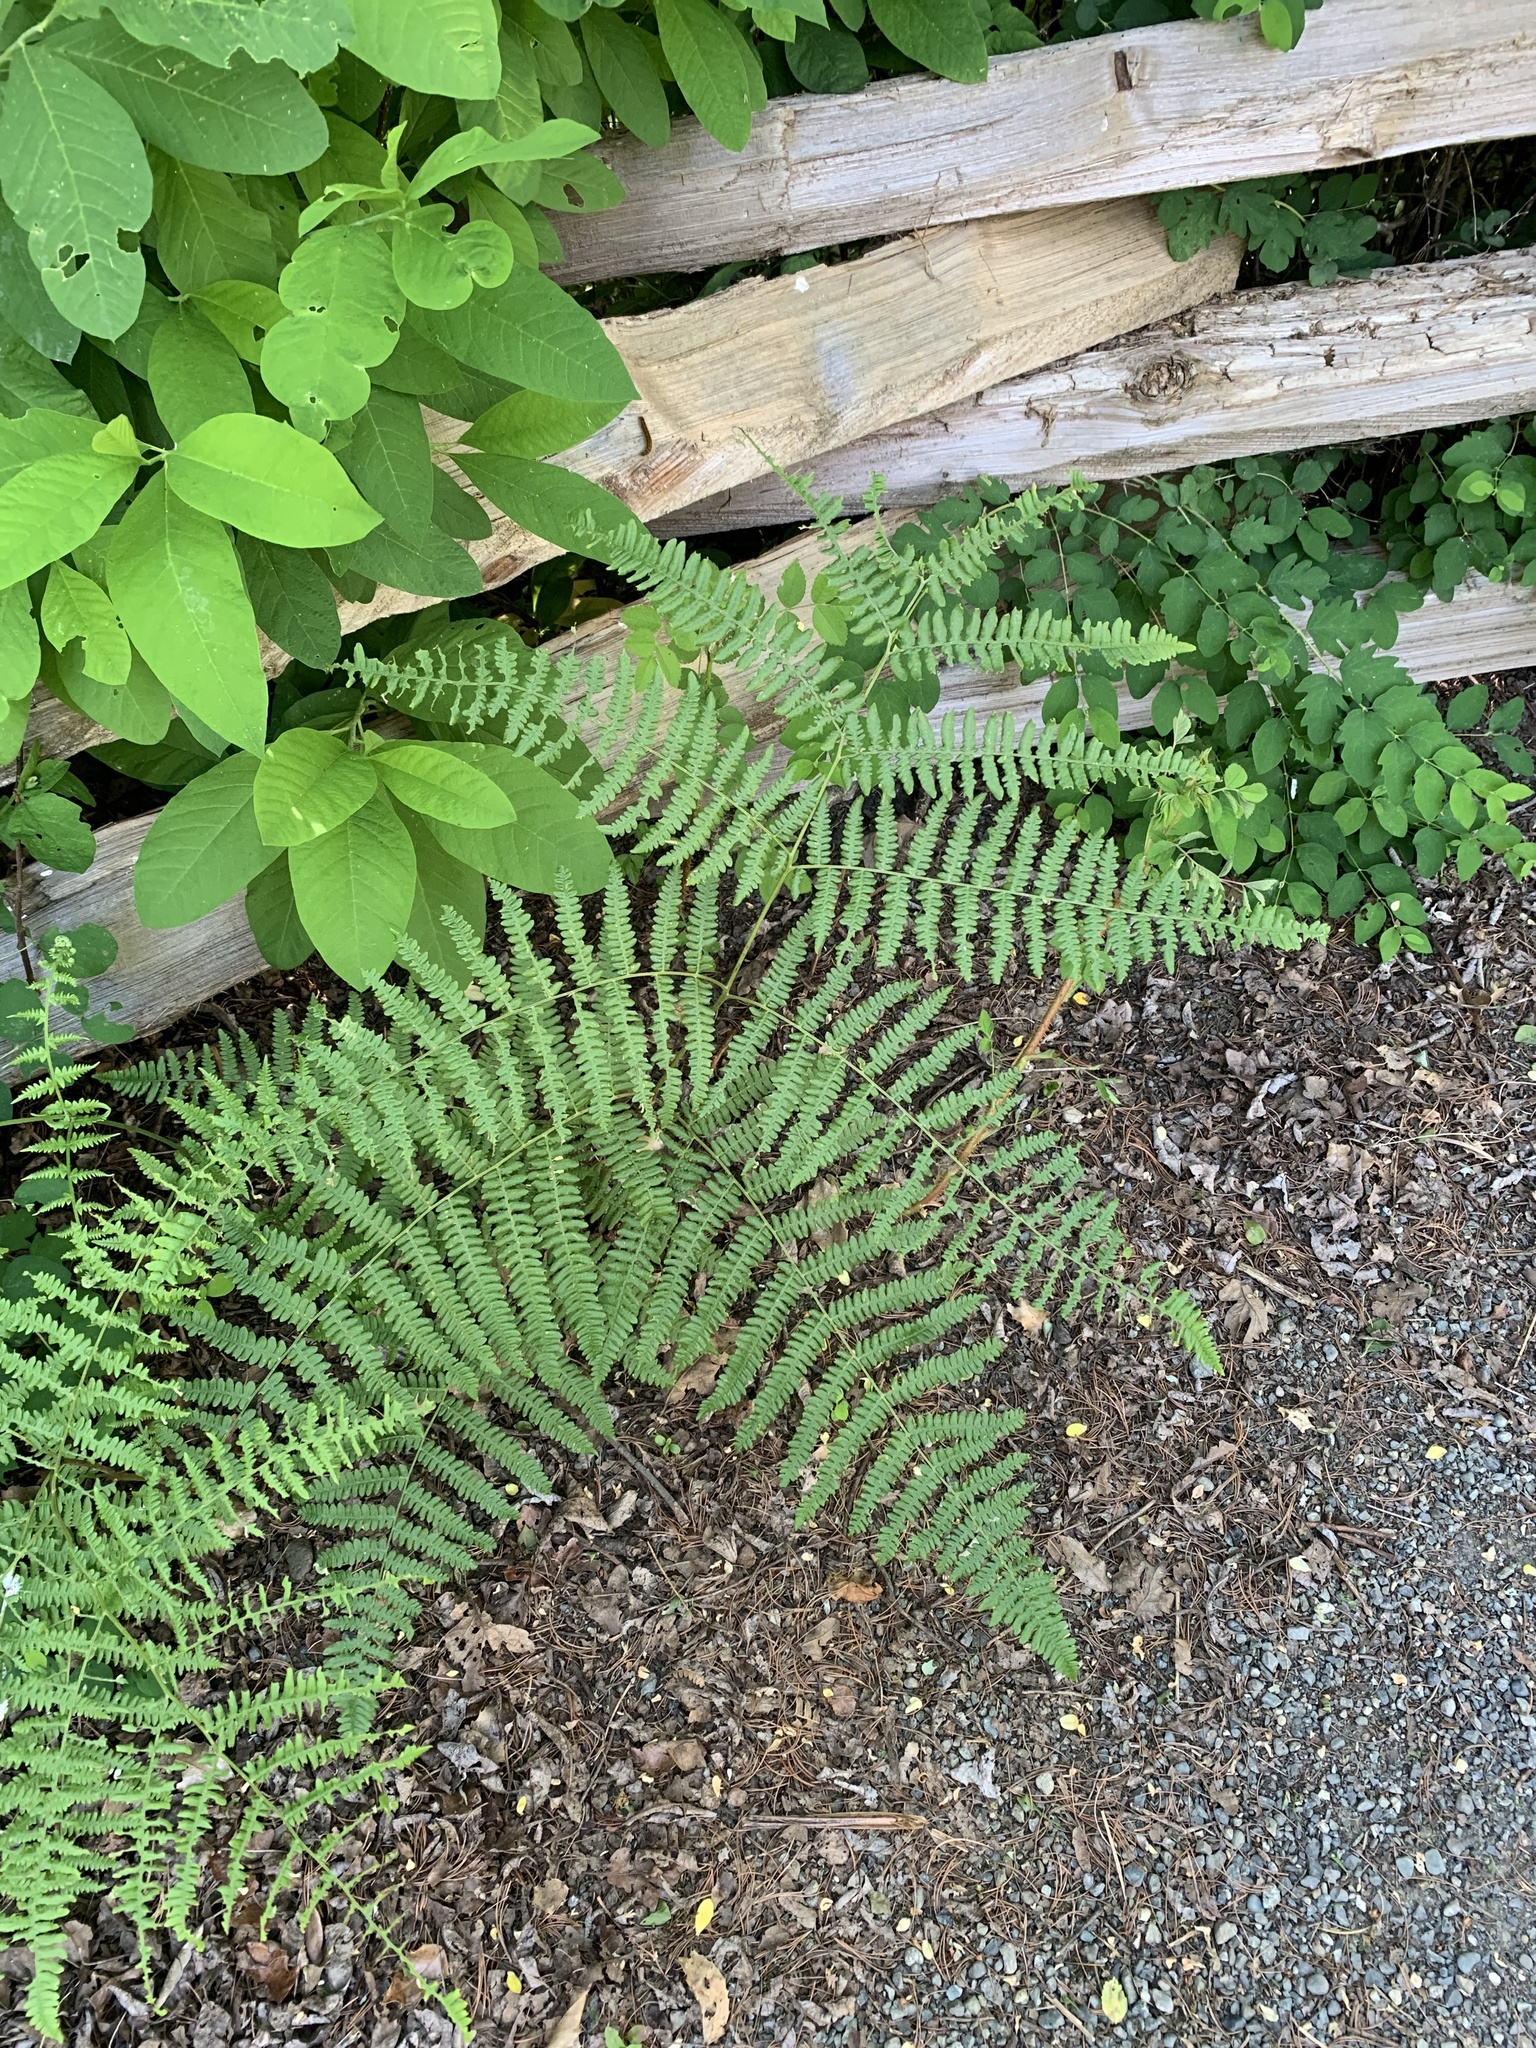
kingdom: Plantae
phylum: Tracheophyta
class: Polypodiopsida
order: Polypodiales
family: Dennstaedtiaceae
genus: Pteridium
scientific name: Pteridium aquilinum
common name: Bracken
